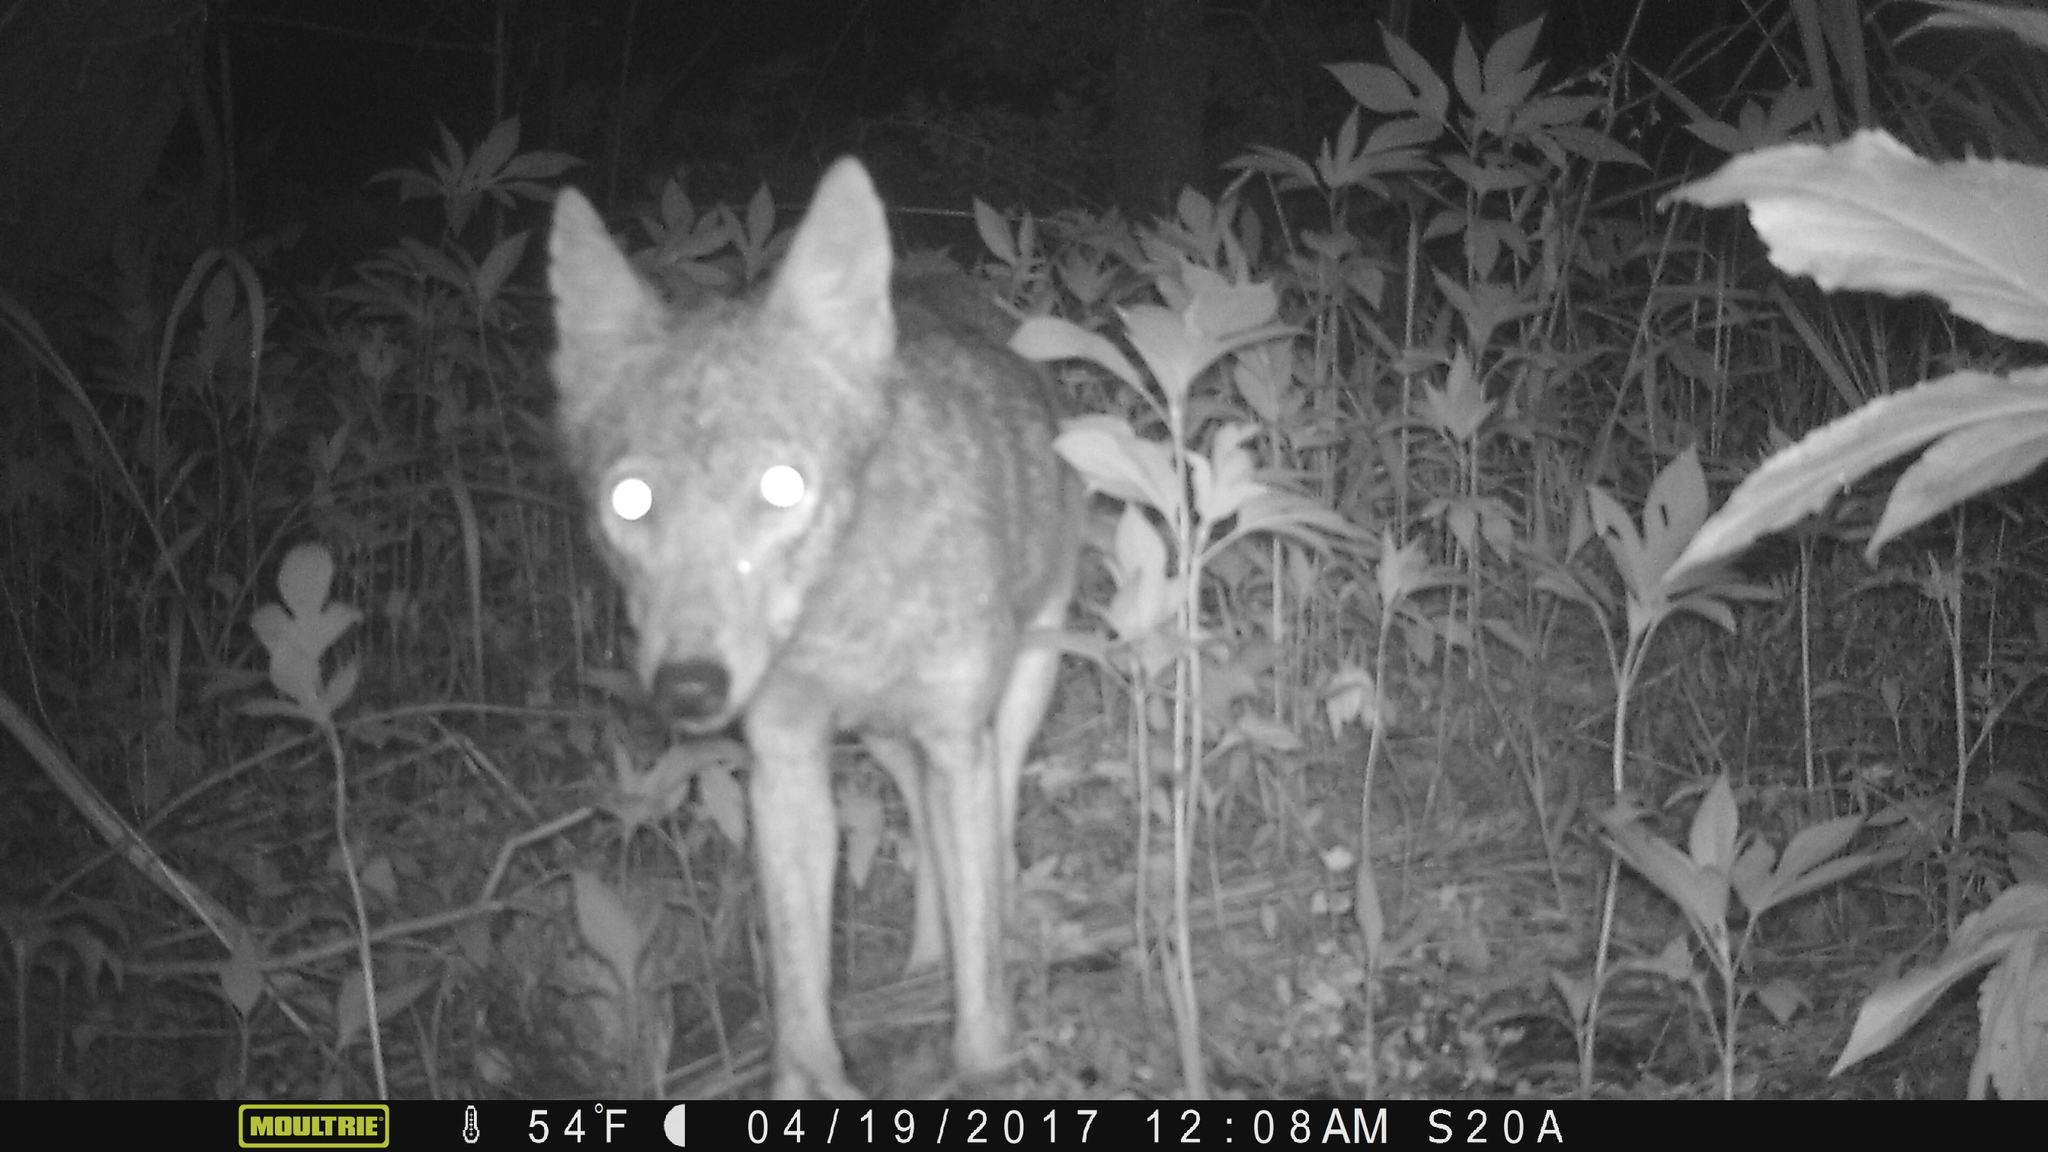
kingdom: Animalia
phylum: Chordata
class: Mammalia
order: Carnivora
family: Canidae
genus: Canis
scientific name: Canis latrans
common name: Coyote
